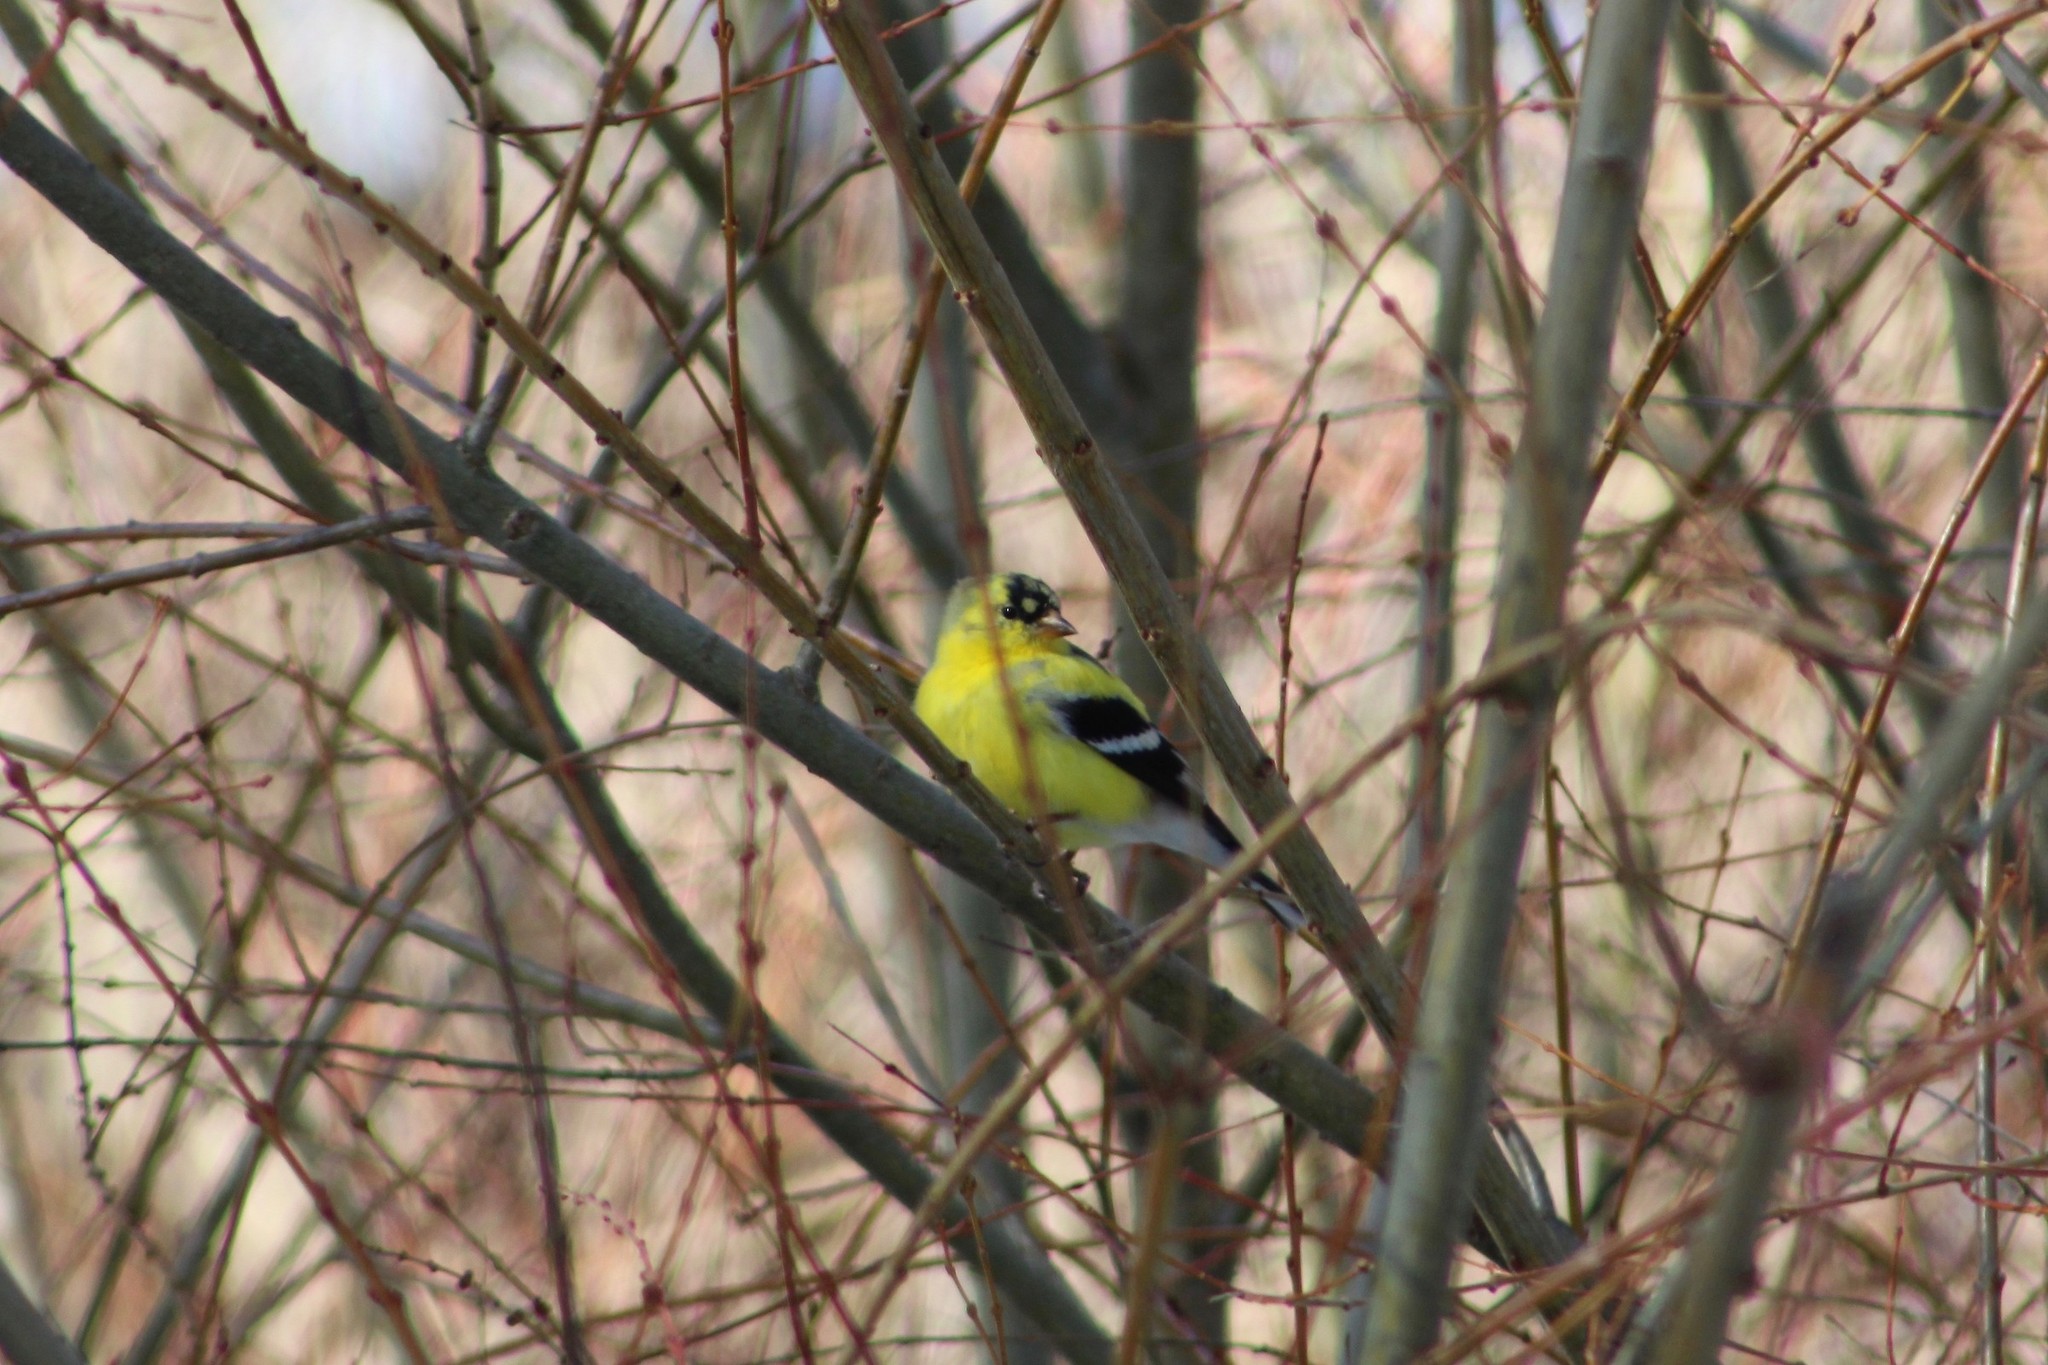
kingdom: Animalia
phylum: Chordata
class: Aves
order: Passeriformes
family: Fringillidae
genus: Spinus
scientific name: Spinus tristis
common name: American goldfinch
